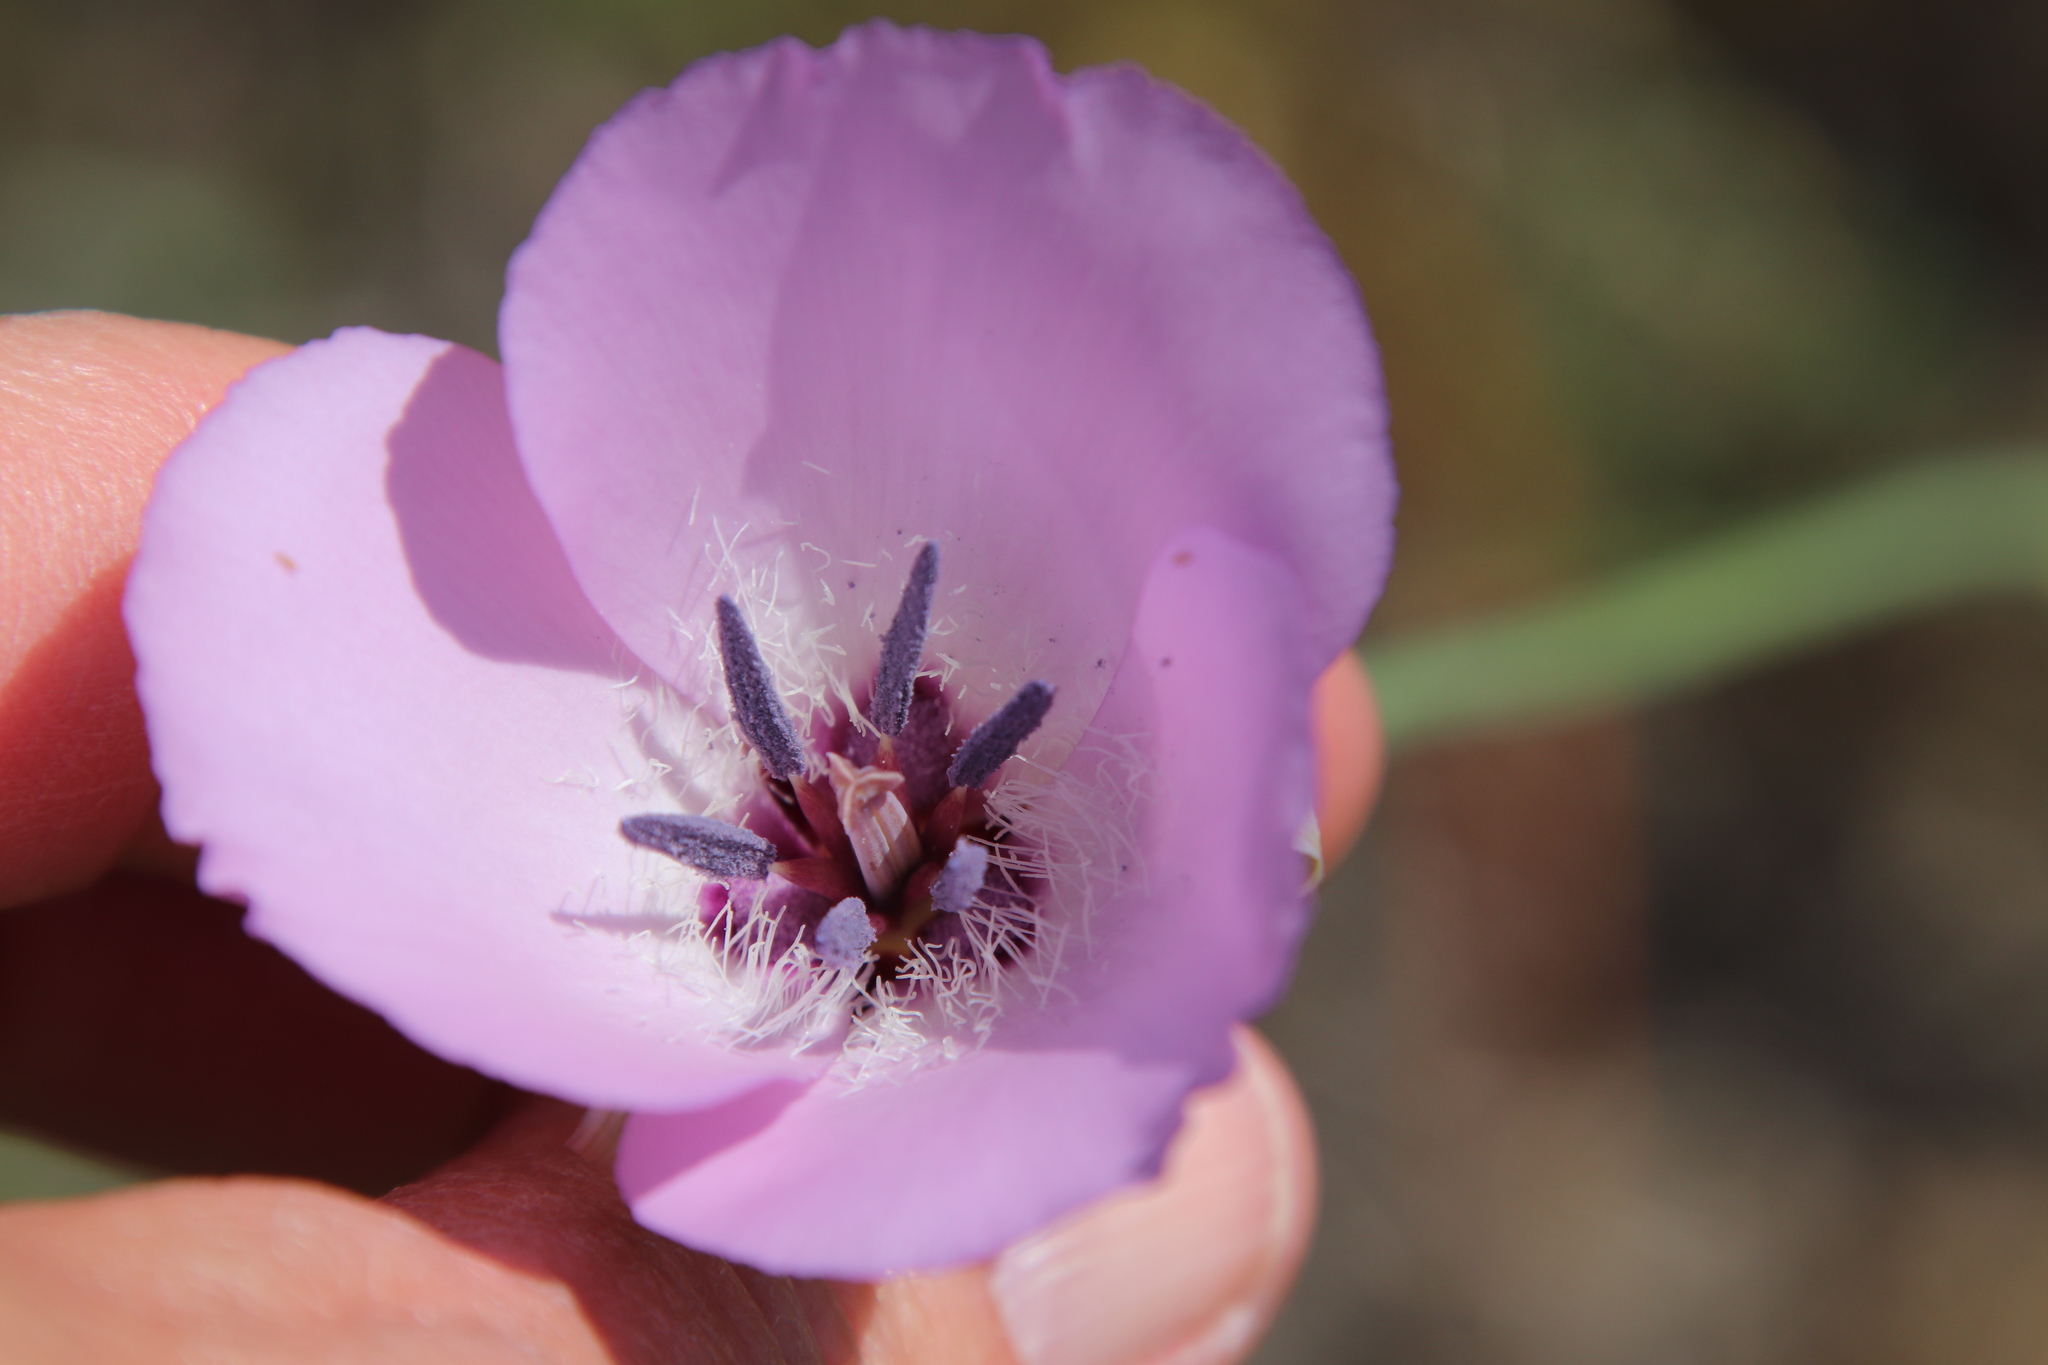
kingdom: Plantae
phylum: Tracheophyta
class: Liliopsida
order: Liliales
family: Liliaceae
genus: Calochortus
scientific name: Calochortus splendens
